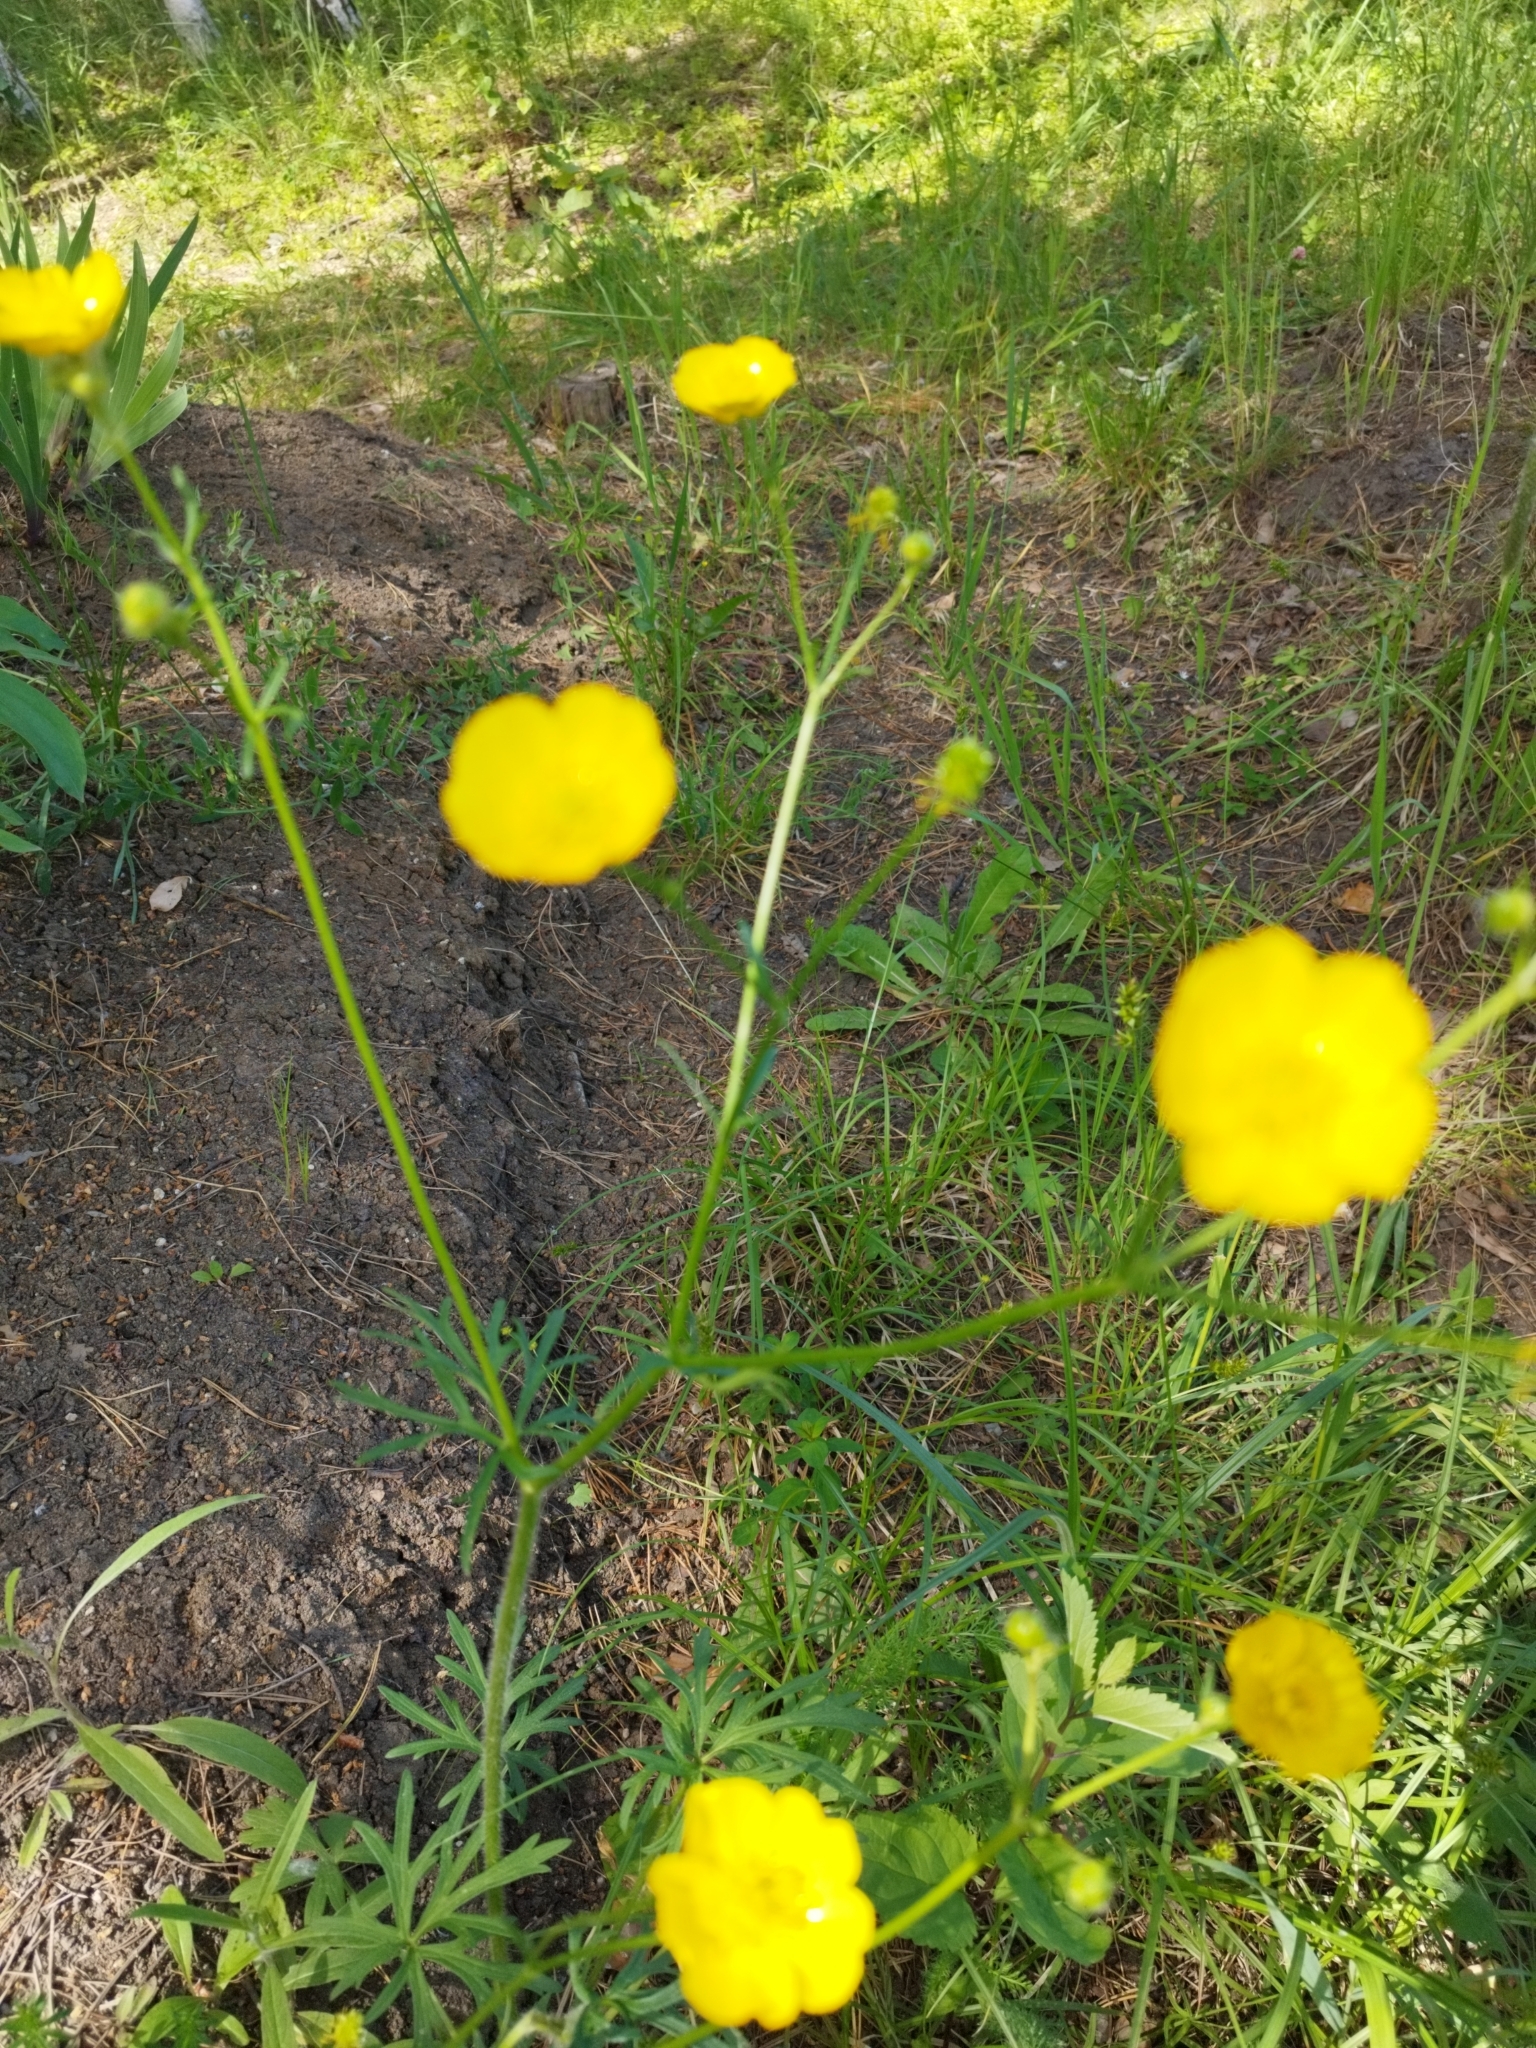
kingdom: Plantae
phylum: Tracheophyta
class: Magnoliopsida
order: Ranunculales
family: Ranunculaceae
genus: Ranunculus
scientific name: Ranunculus polyanthemos
